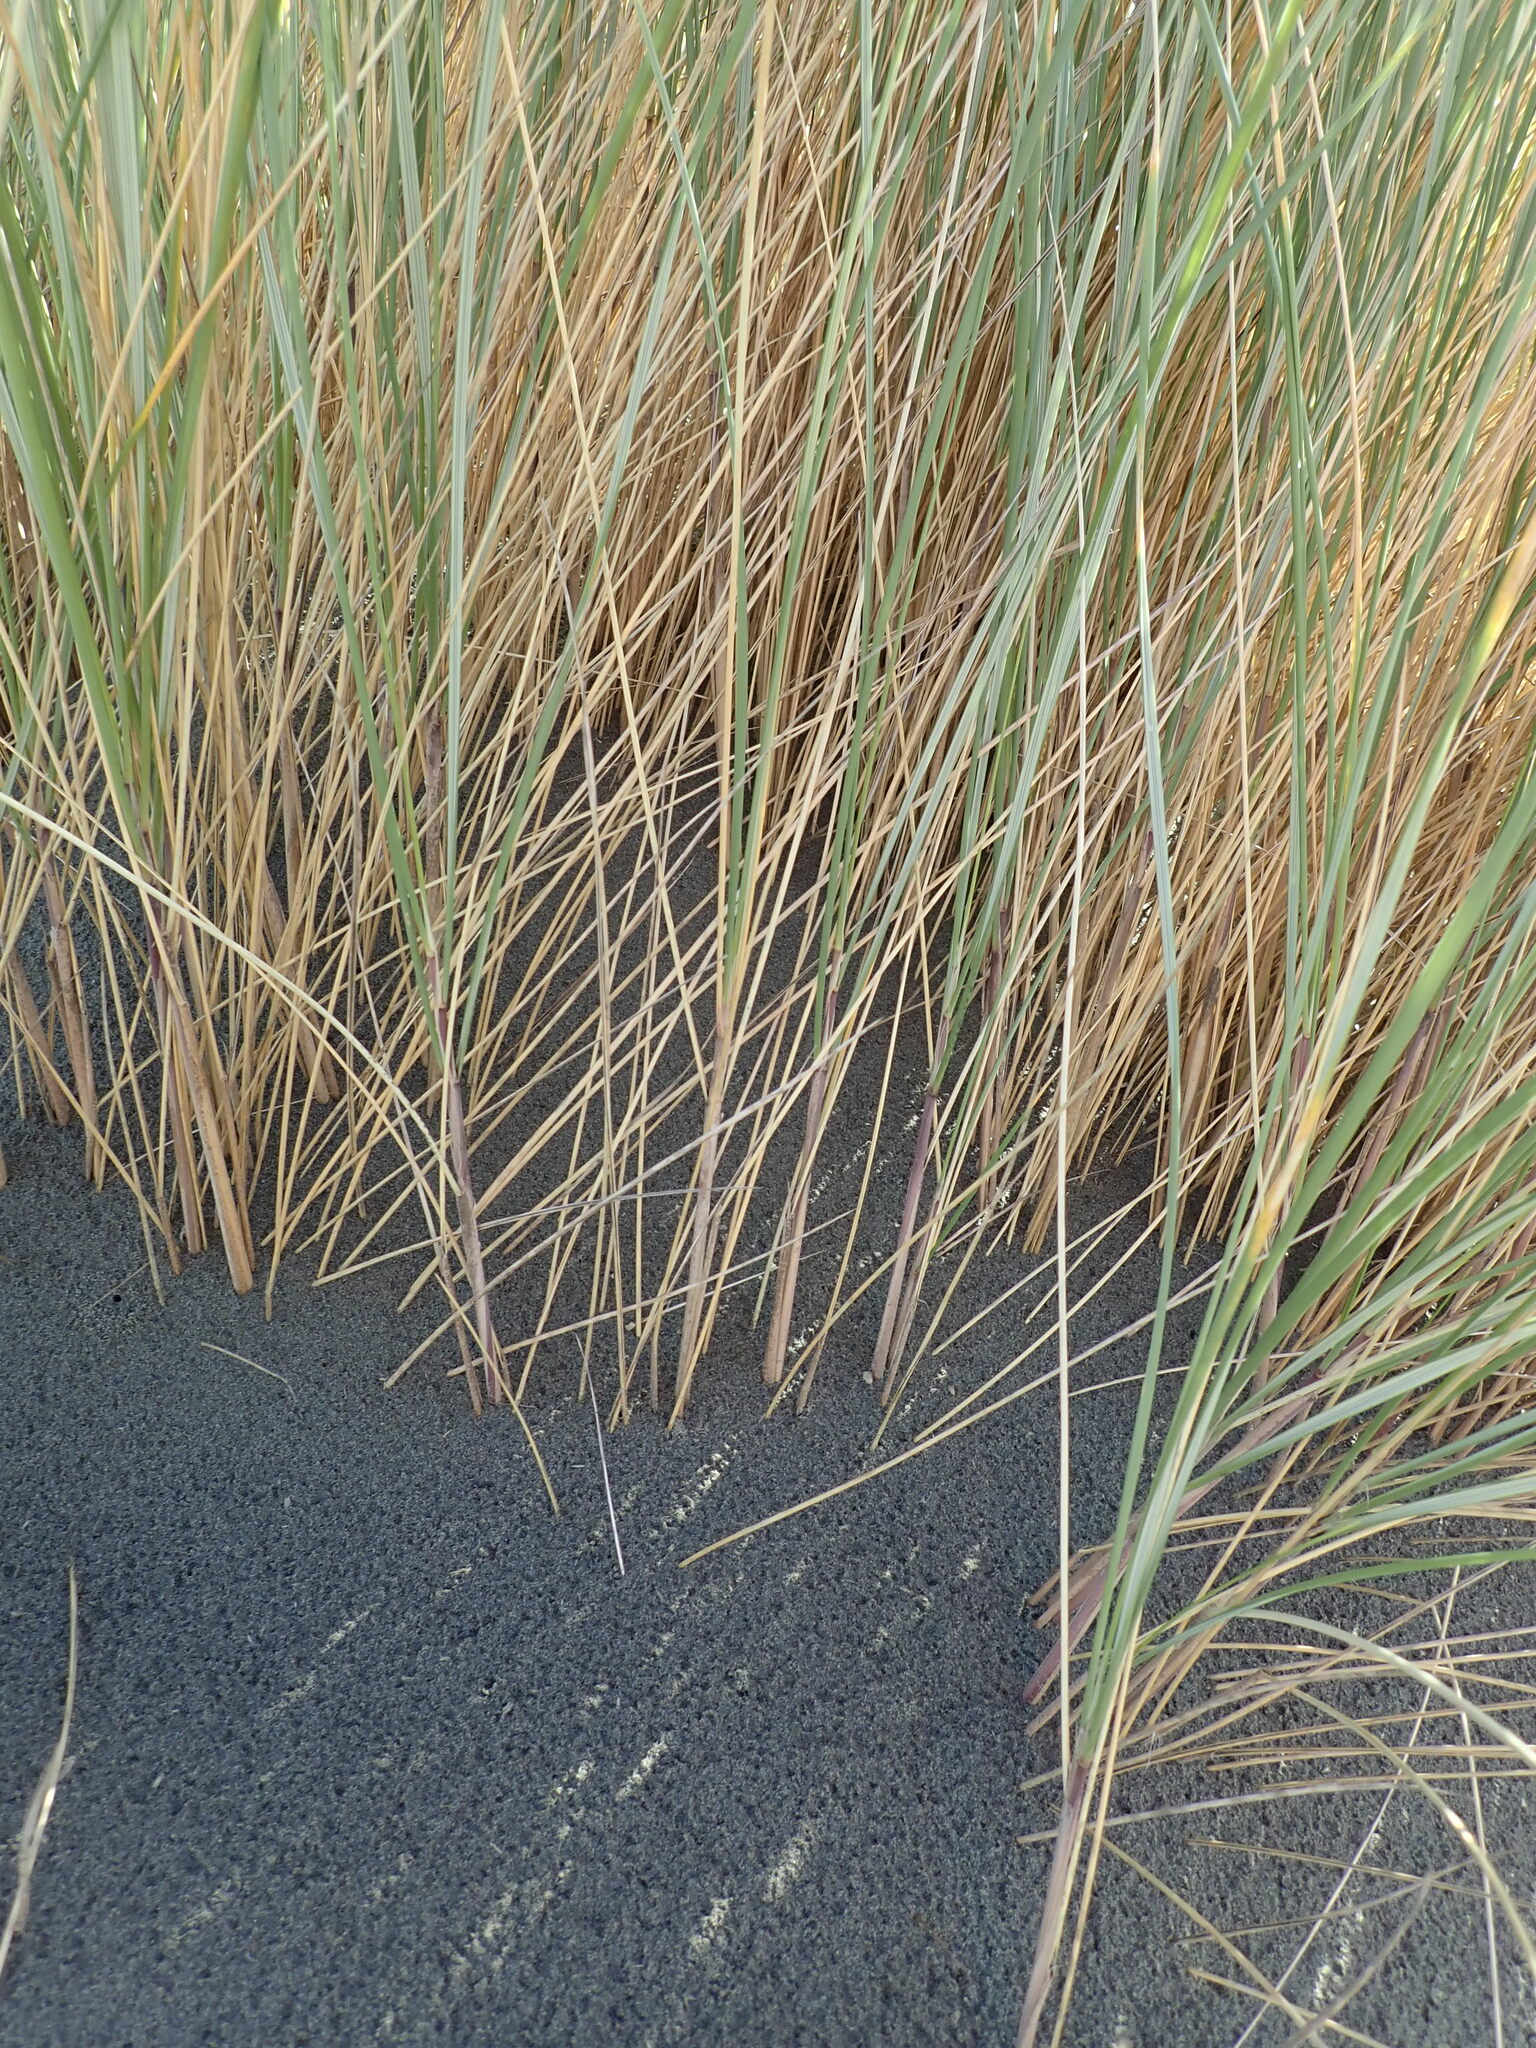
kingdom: Plantae
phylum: Tracheophyta
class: Liliopsida
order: Poales
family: Poaceae
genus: Calamagrostis
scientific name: Calamagrostis arenaria
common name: European beachgrass
